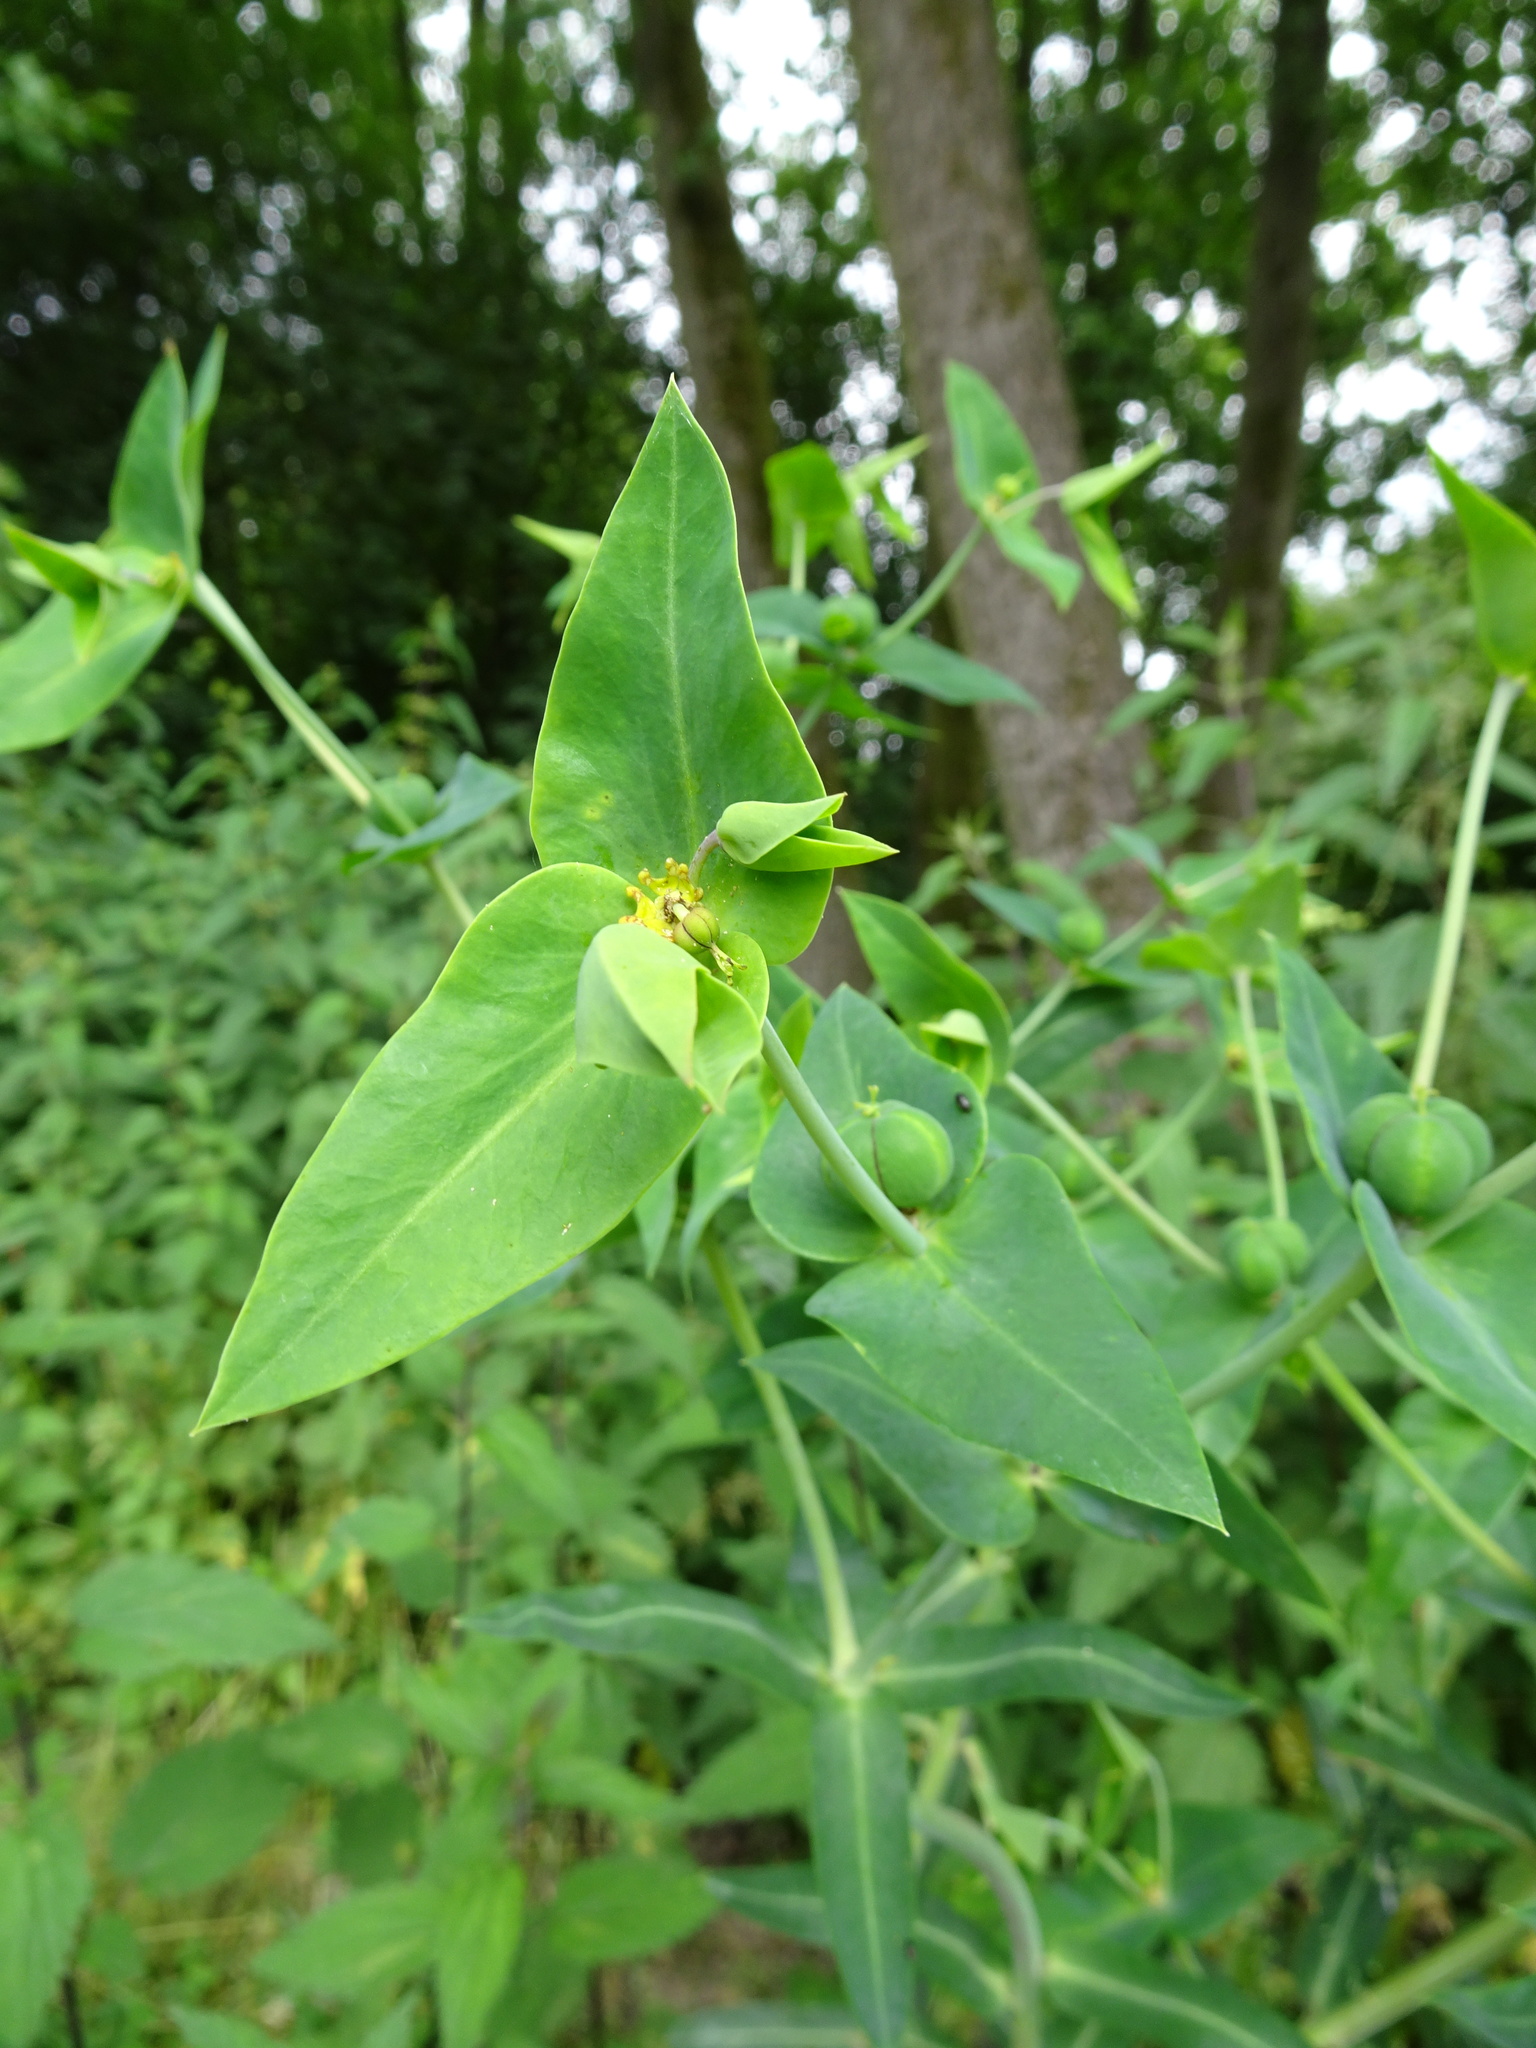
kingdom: Plantae
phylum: Tracheophyta
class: Magnoliopsida
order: Malpighiales
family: Euphorbiaceae
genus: Euphorbia
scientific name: Euphorbia lathyris
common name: Caper spurge
